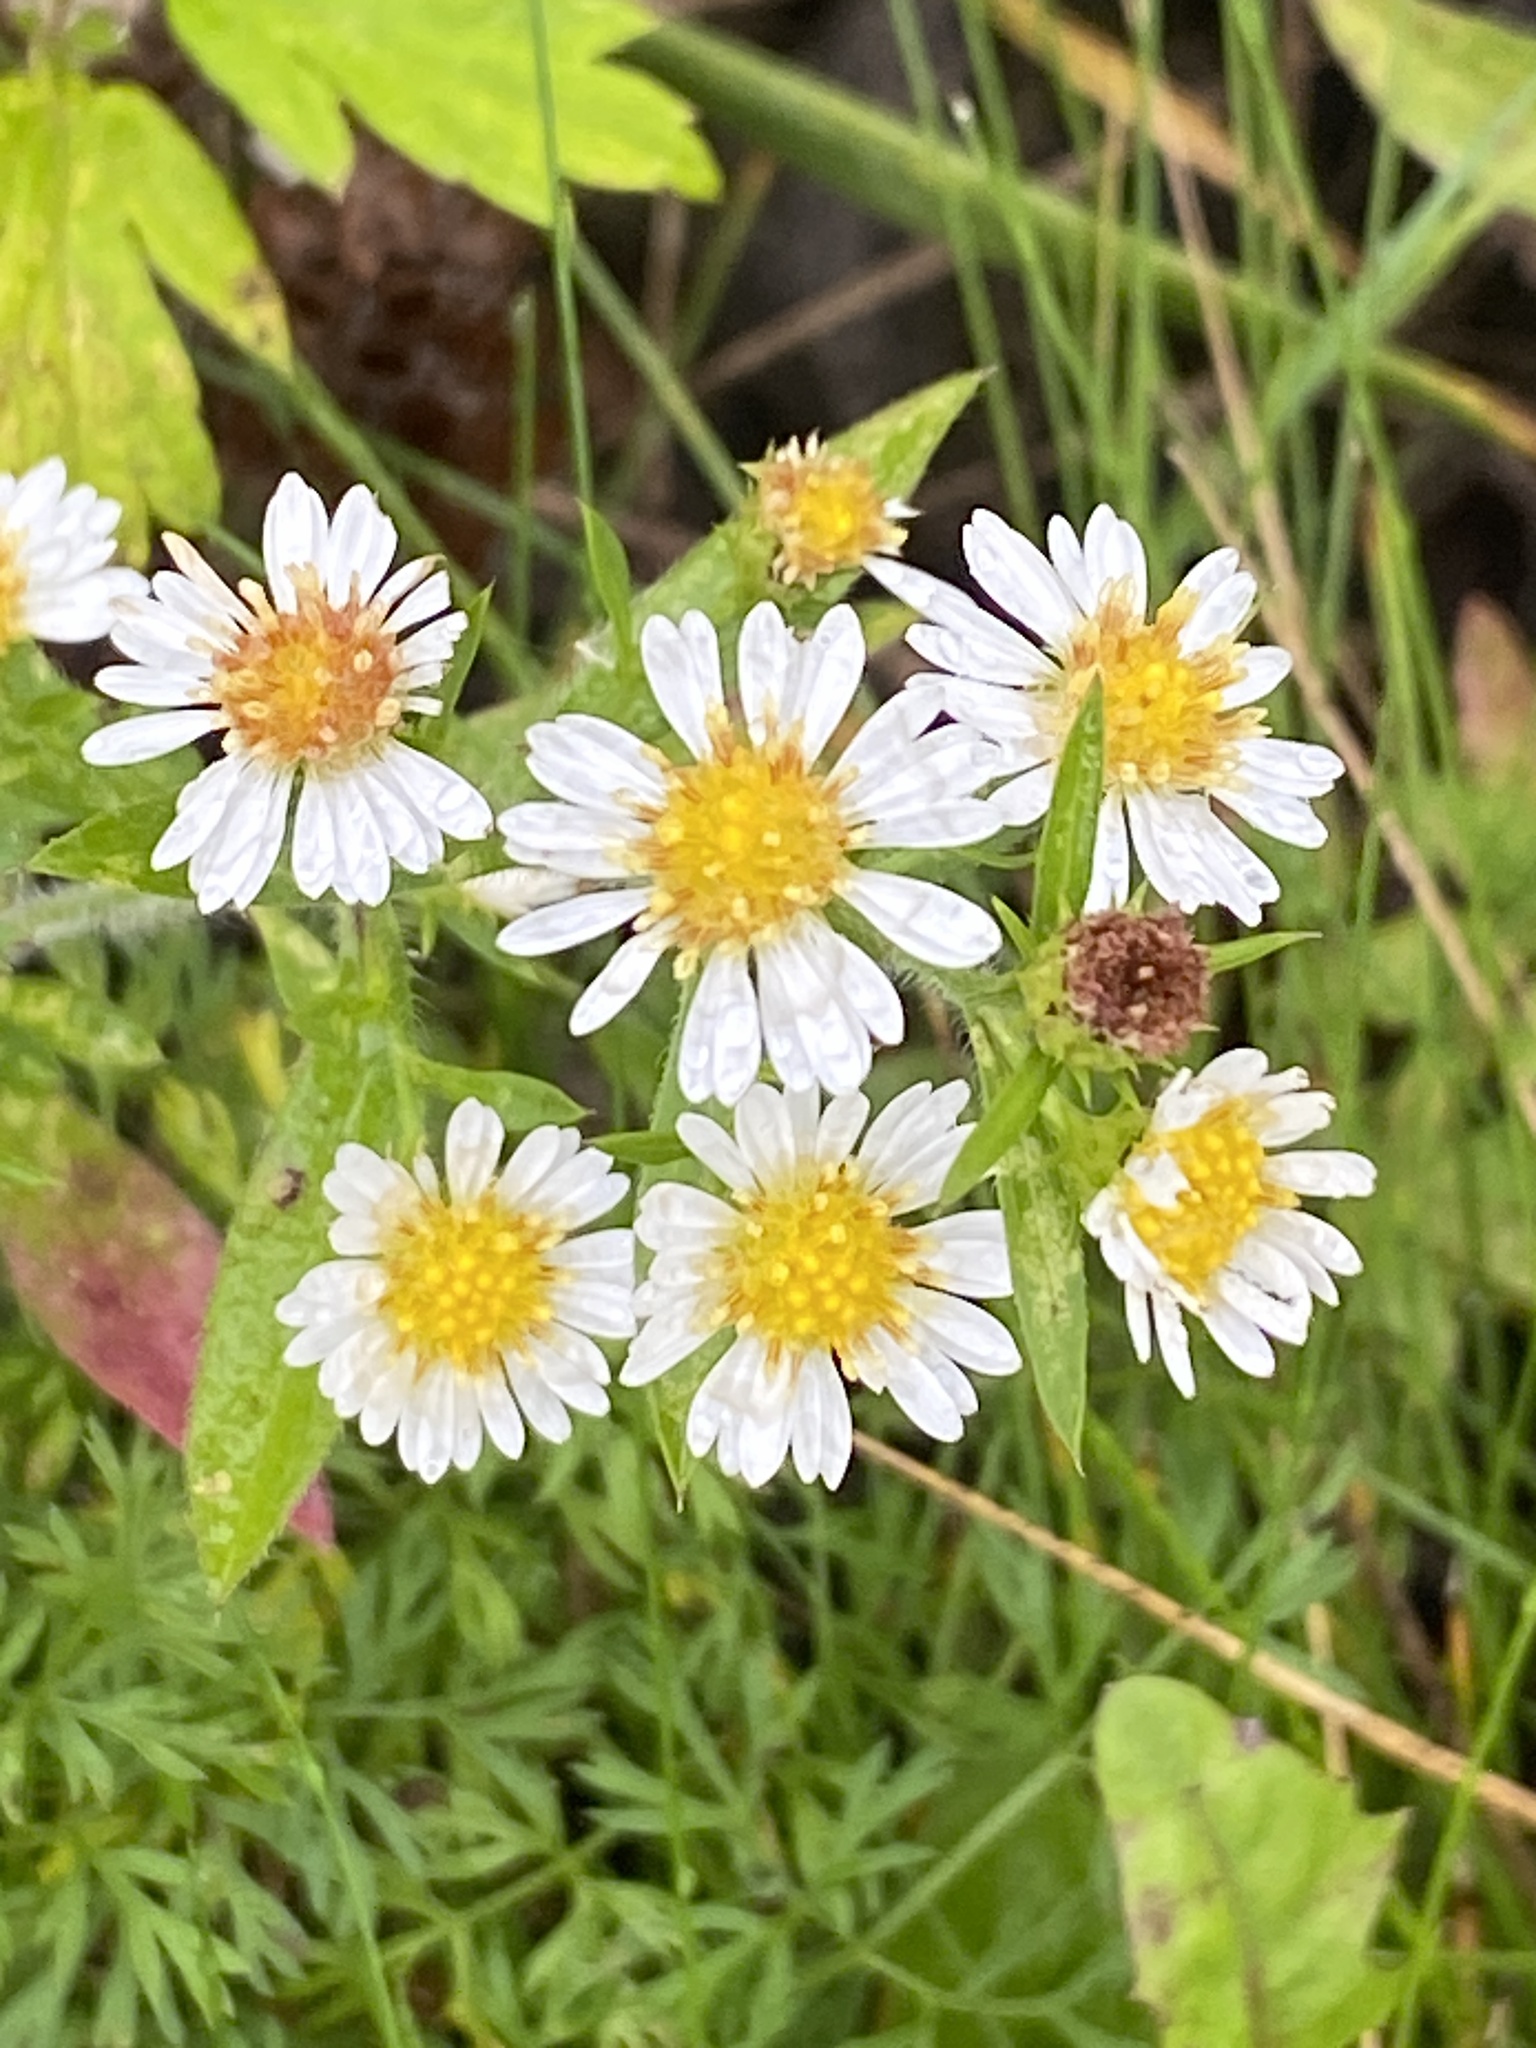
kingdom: Plantae
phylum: Tracheophyta
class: Magnoliopsida
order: Asterales
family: Asteraceae
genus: Symphyotrichum
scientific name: Symphyotrichum pilosum
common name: Awl aster
